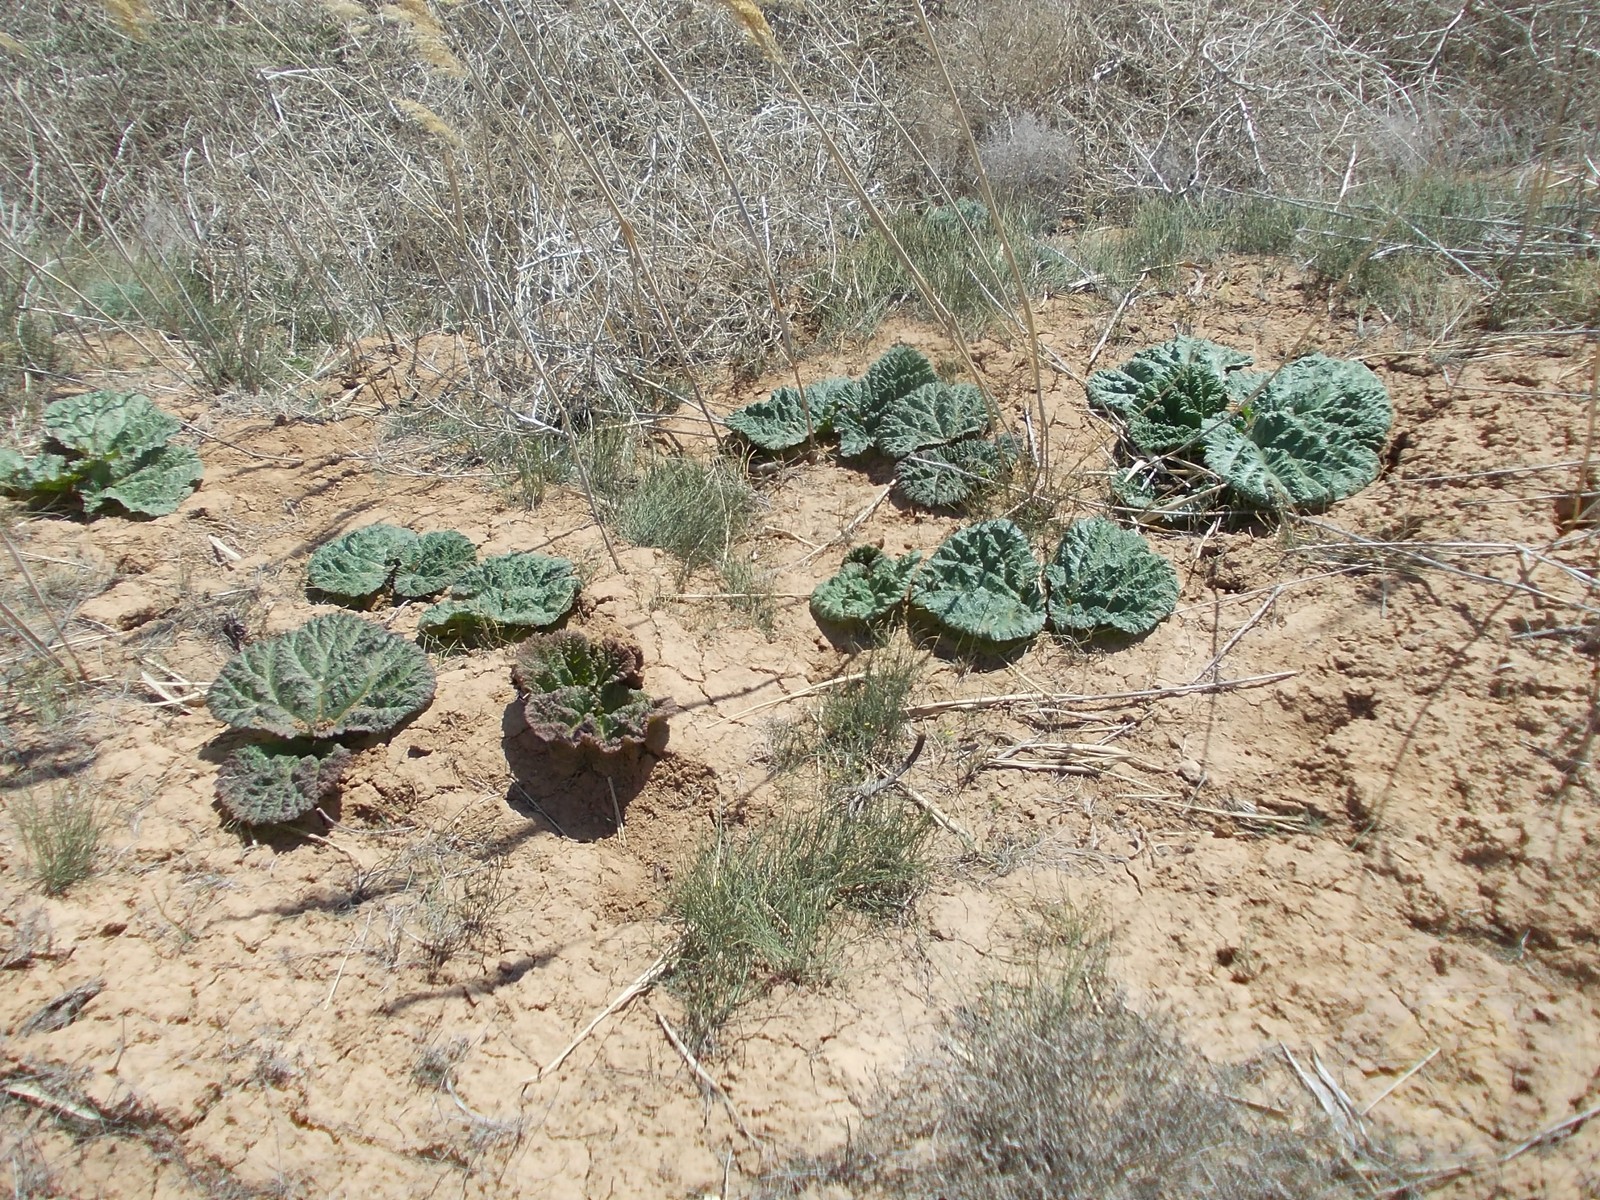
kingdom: Plantae
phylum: Tracheophyta
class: Magnoliopsida
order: Caryophyllales
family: Polygonaceae
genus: Rheum
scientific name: Rheum tataricum
